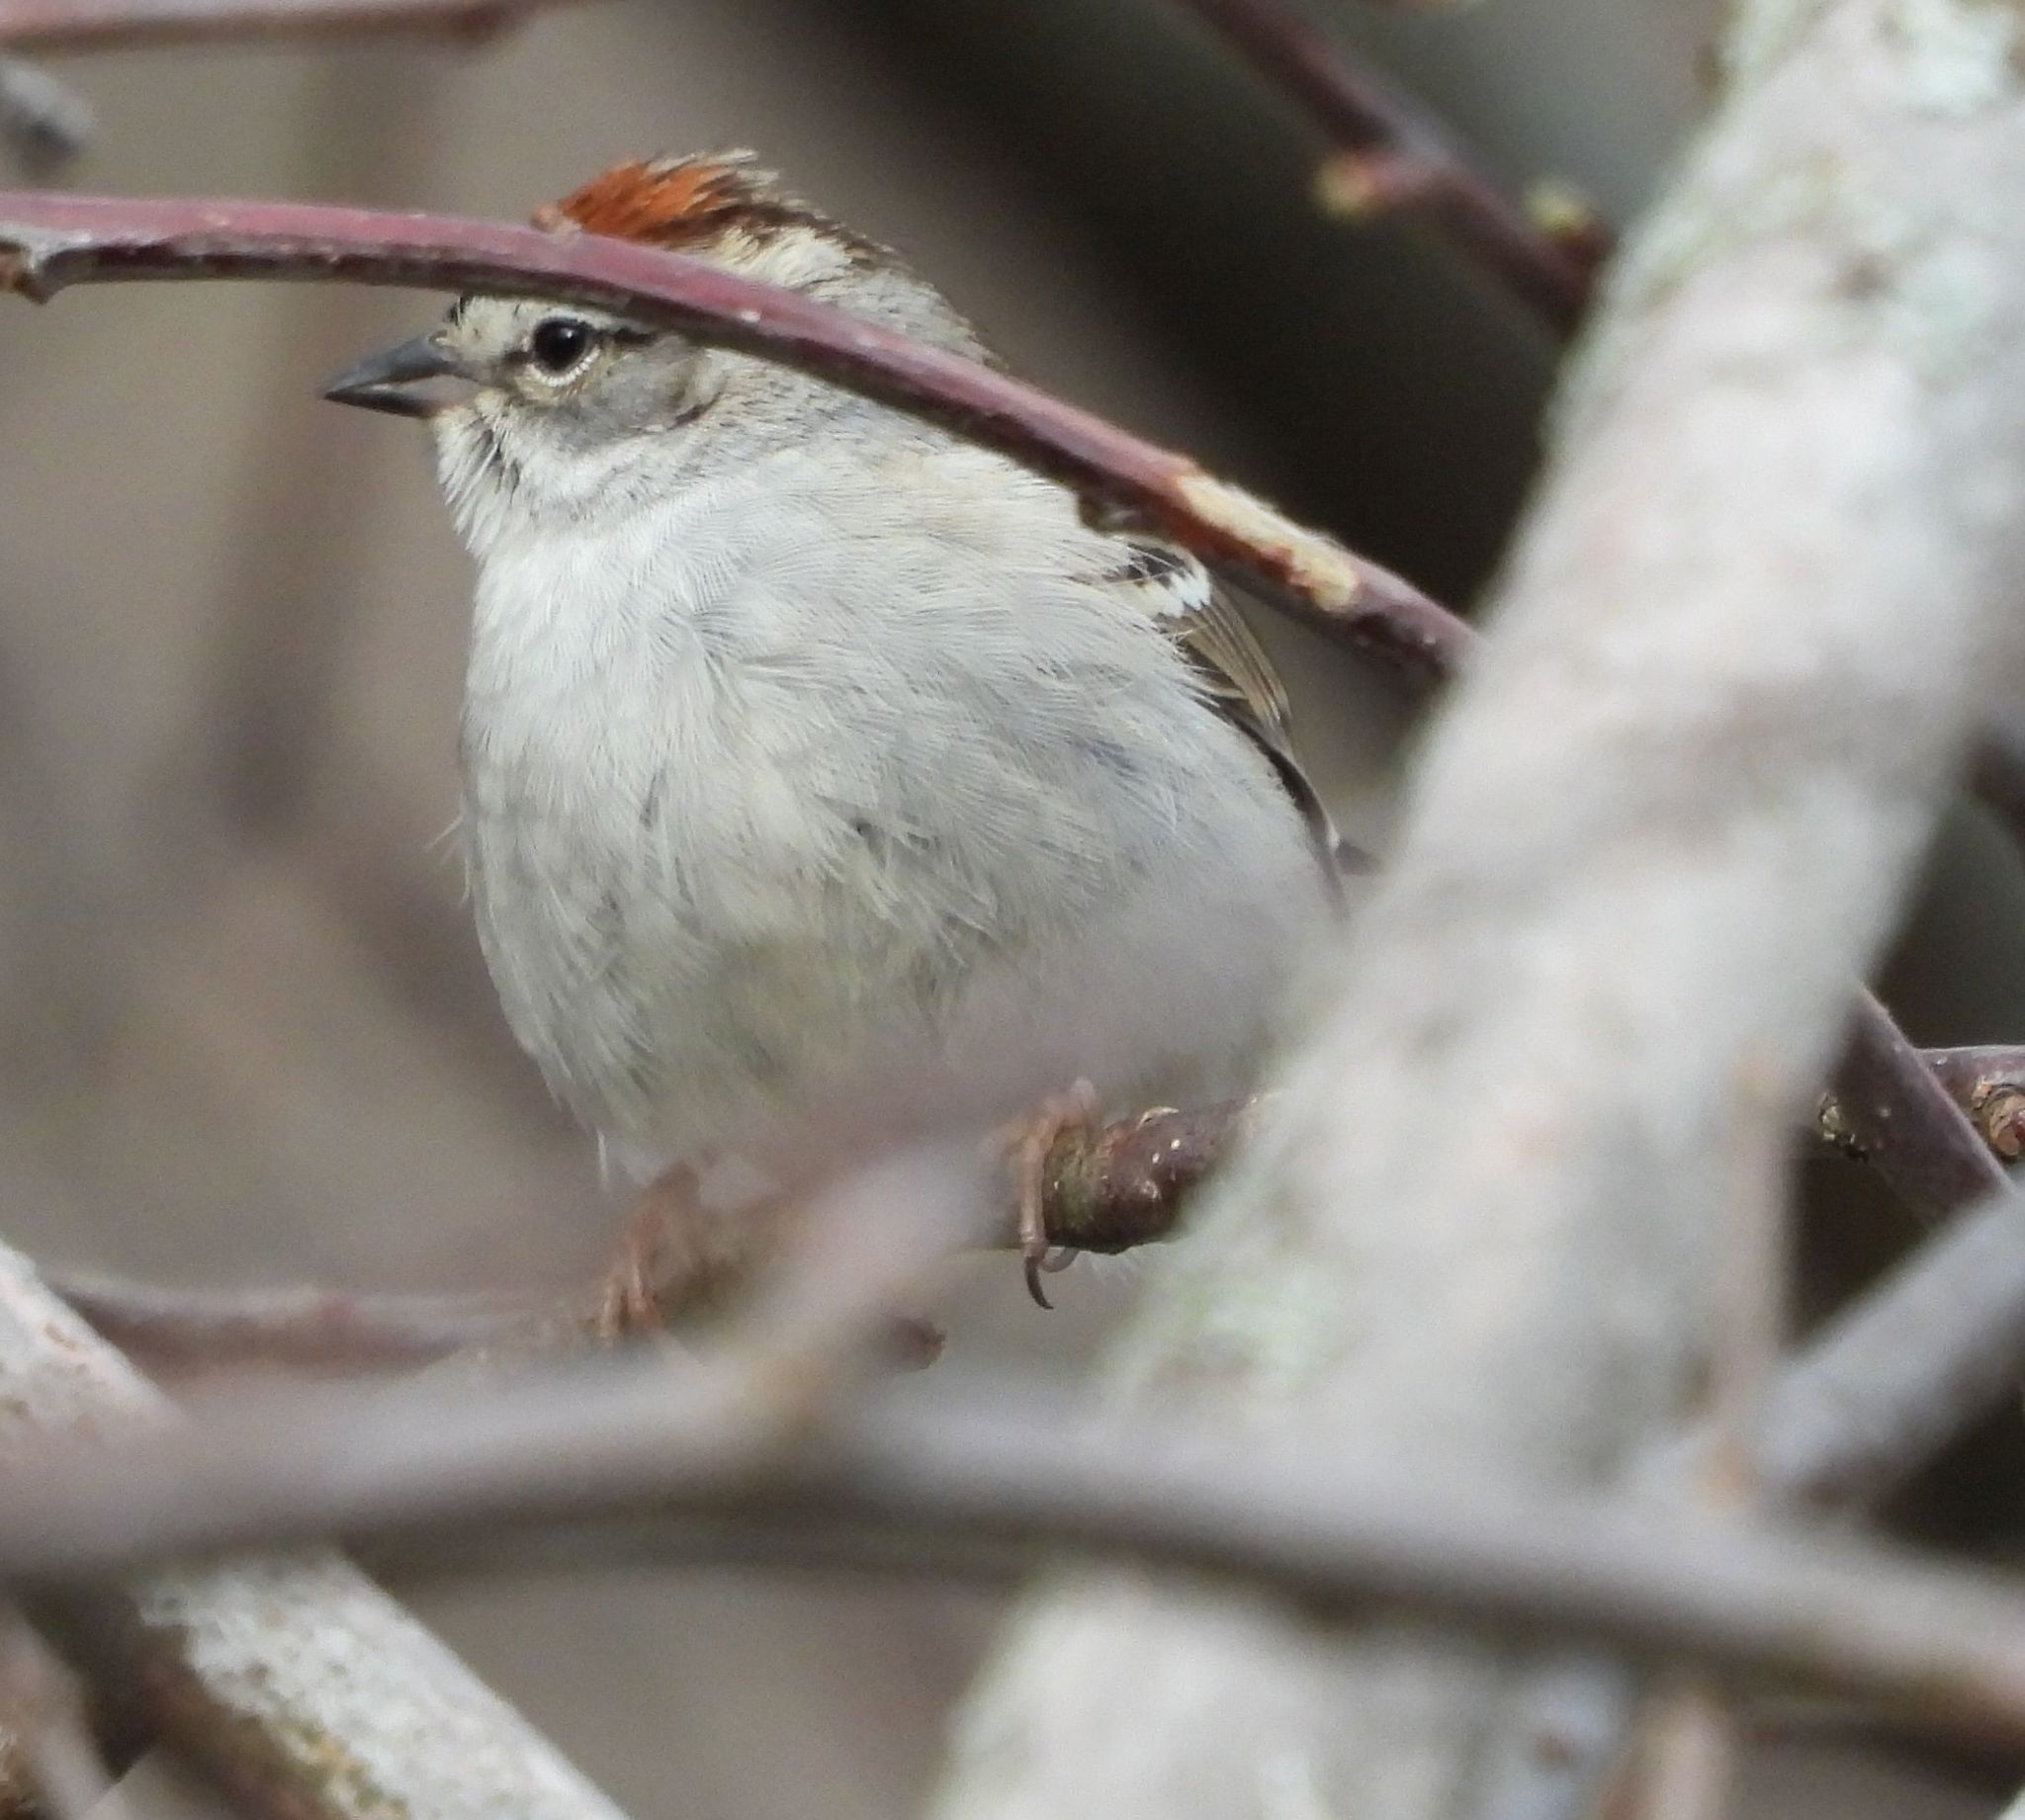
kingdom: Animalia
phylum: Chordata
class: Aves
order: Passeriformes
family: Passerellidae
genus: Spizella
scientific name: Spizella passerina
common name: Chipping sparrow
